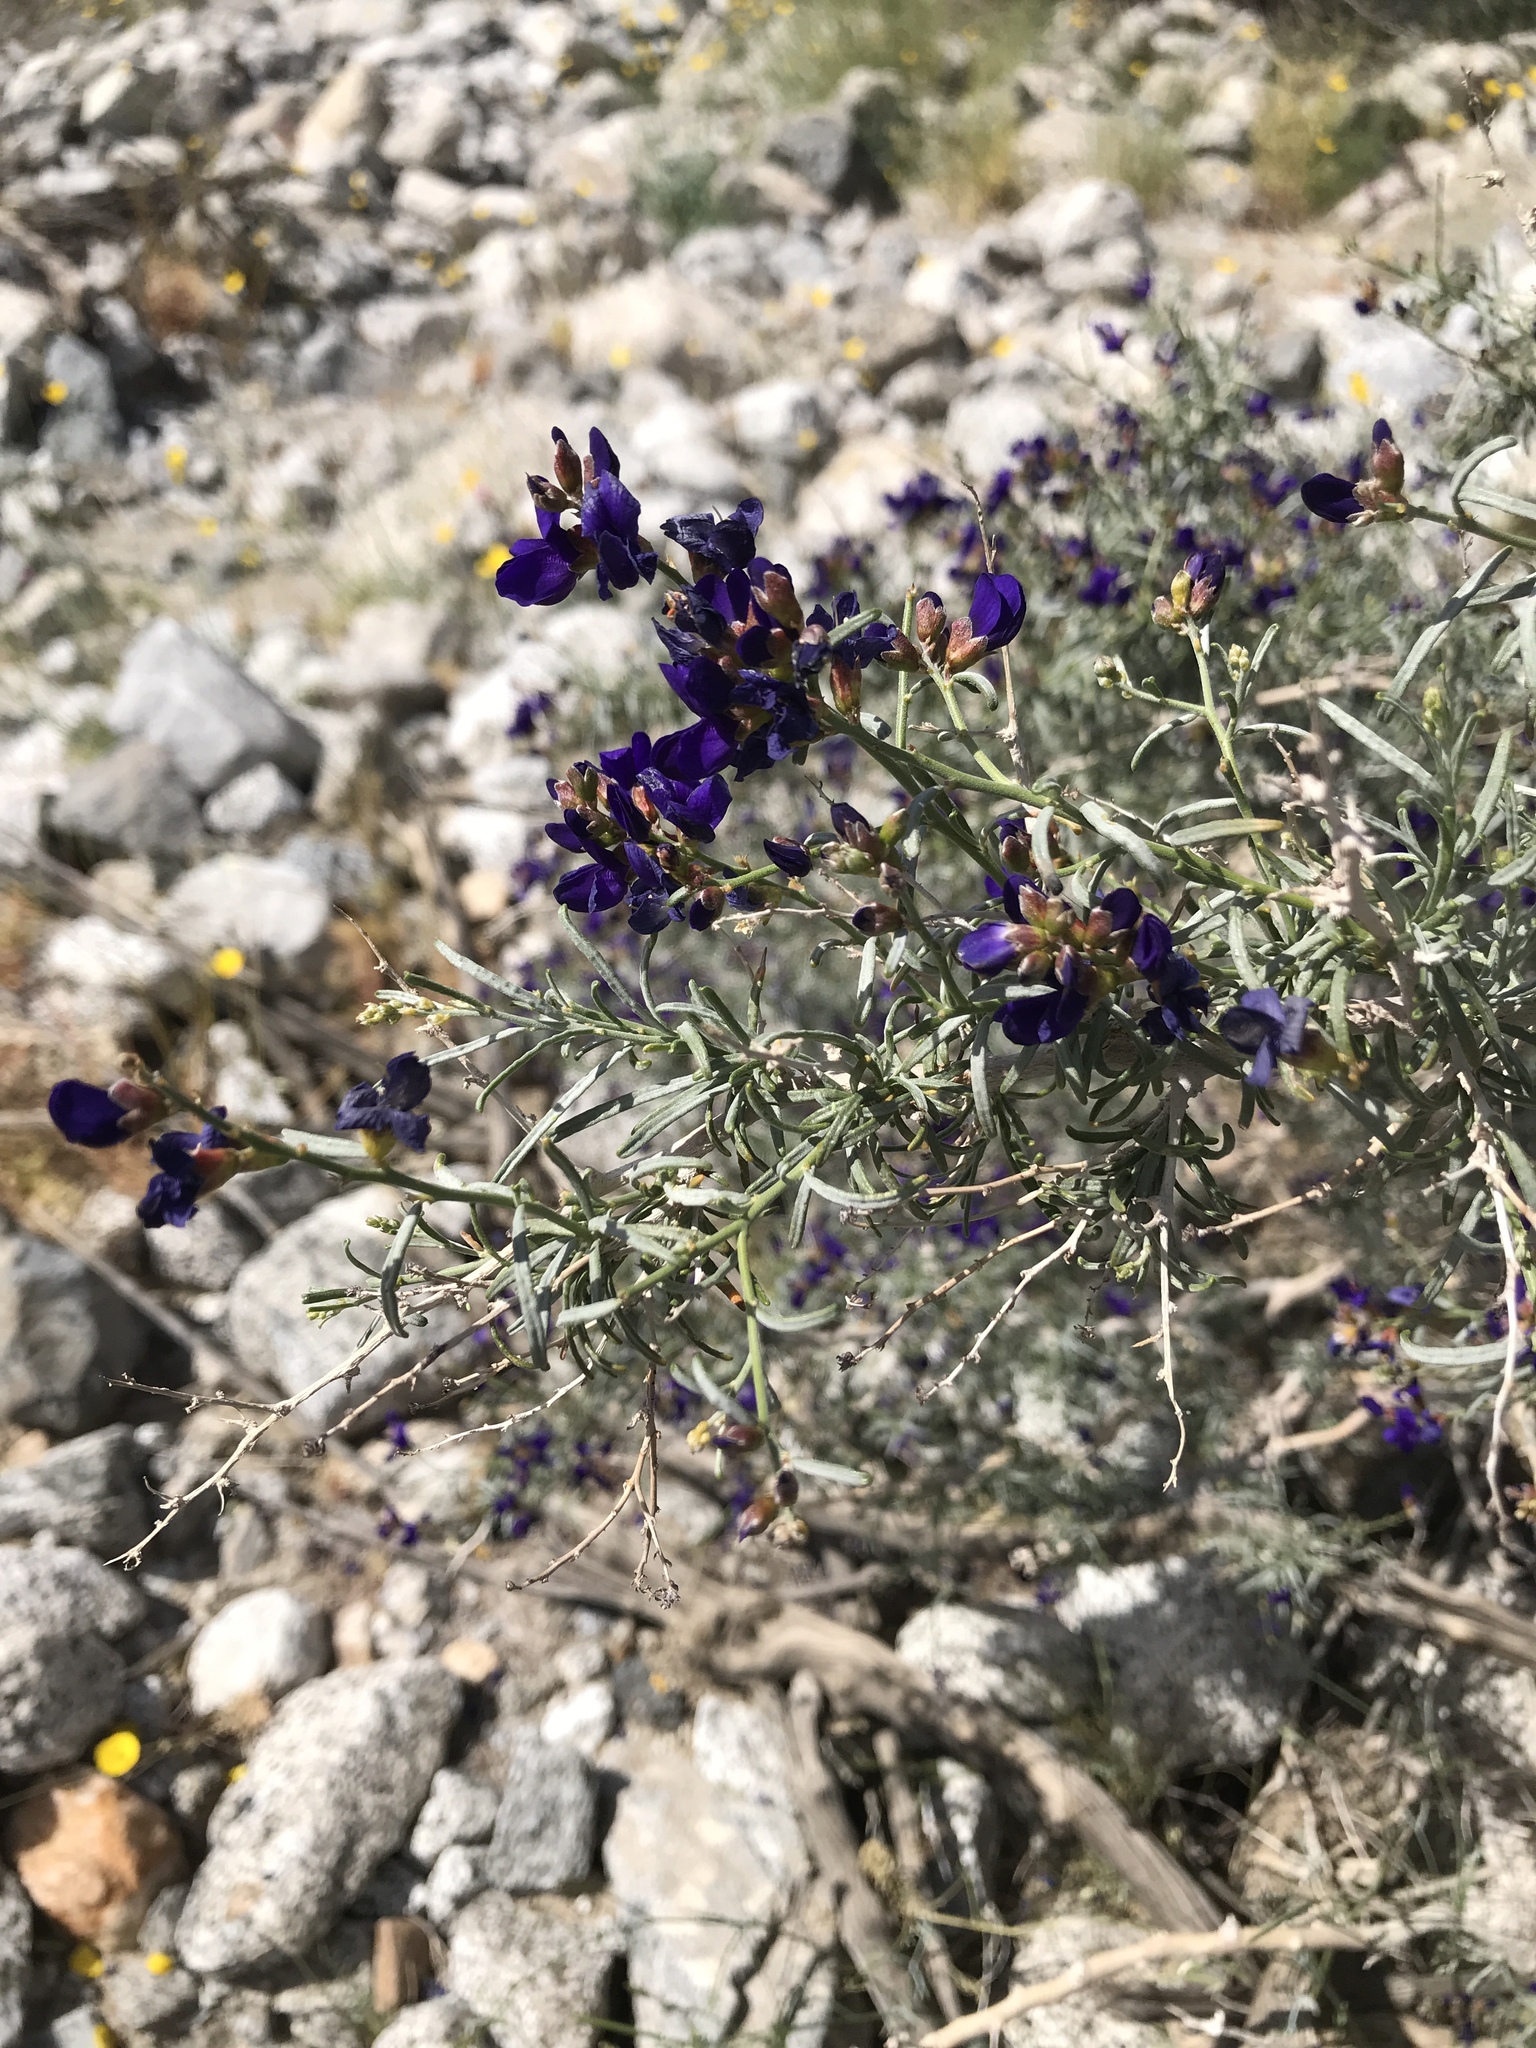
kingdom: Plantae
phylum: Tracheophyta
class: Magnoliopsida
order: Fabales
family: Fabaceae
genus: Psorothamnus
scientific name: Psorothamnus schottii
